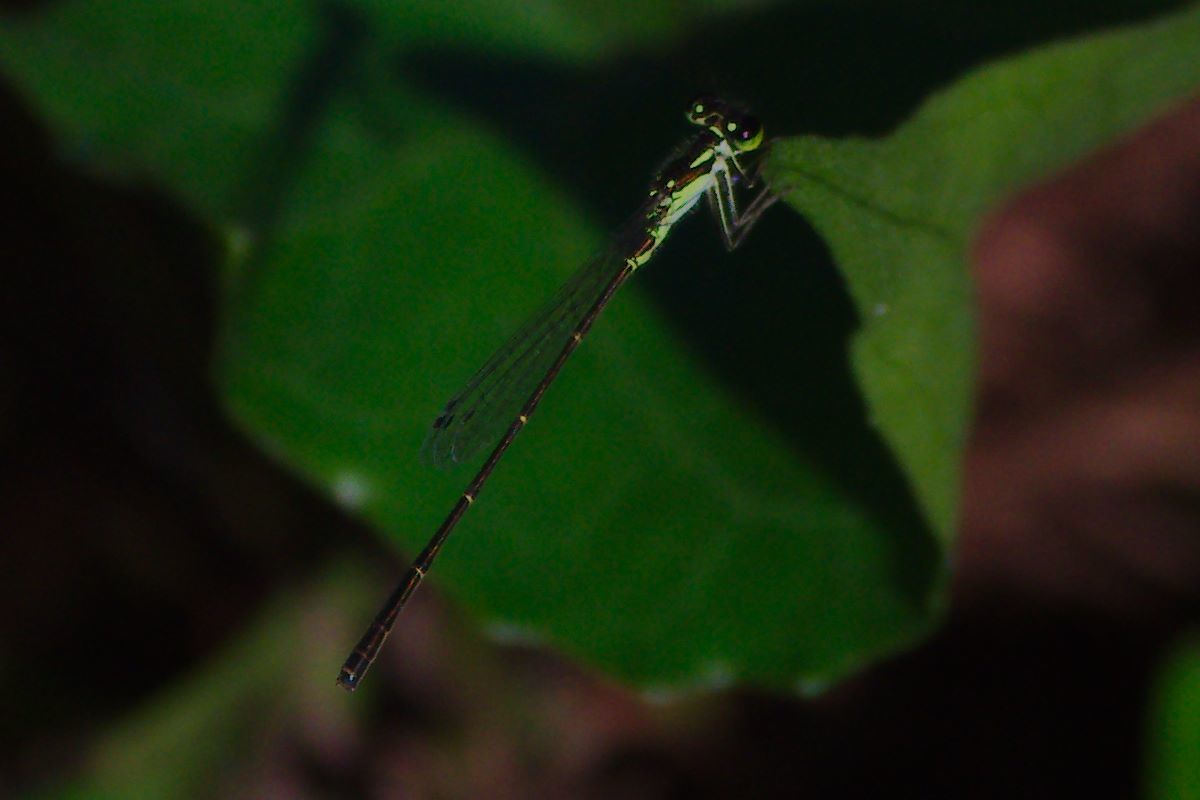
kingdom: Animalia
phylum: Arthropoda
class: Insecta
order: Odonata
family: Coenagrionidae
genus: Ischnura
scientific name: Ischnura posita
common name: Fragile forktail
